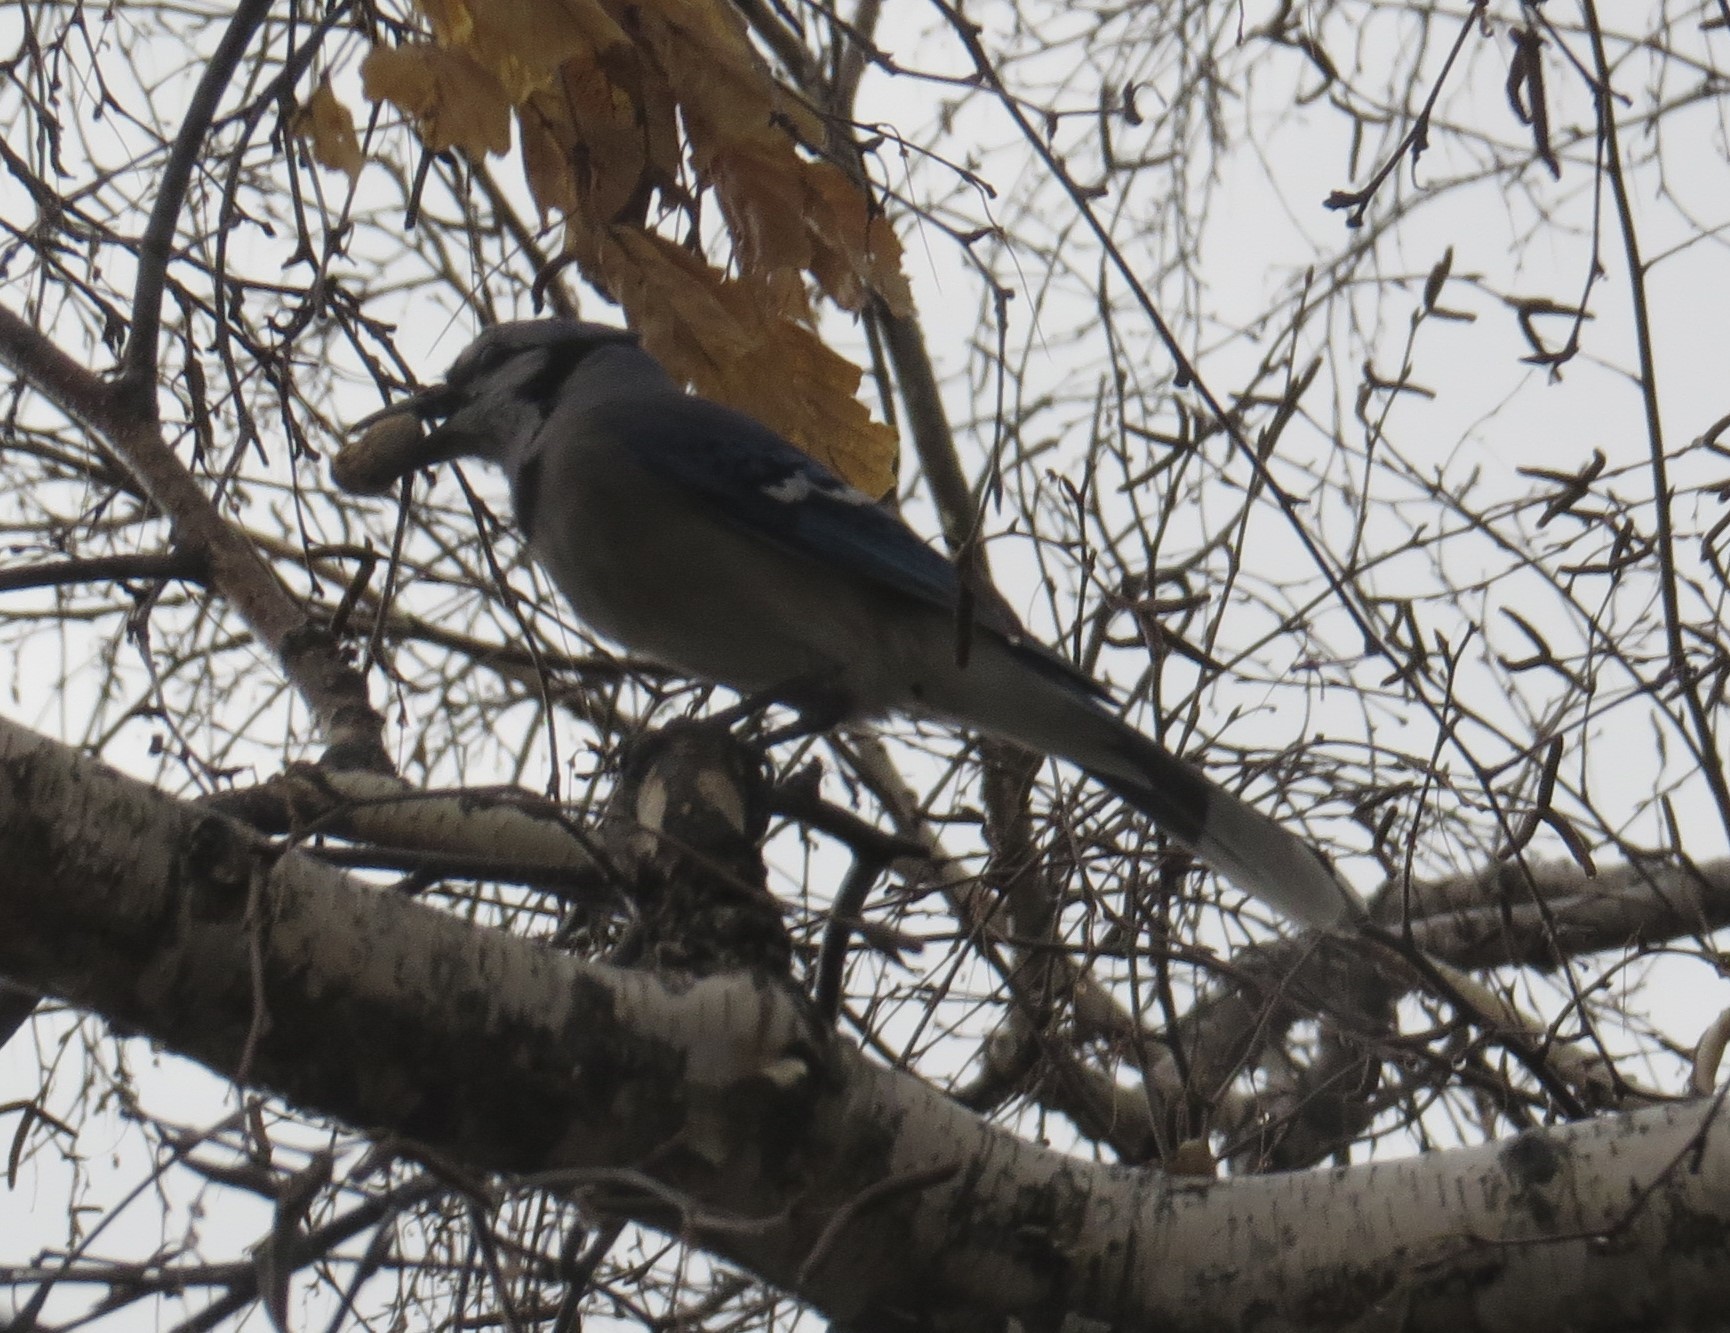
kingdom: Animalia
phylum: Chordata
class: Aves
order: Passeriformes
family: Corvidae
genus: Cyanocitta
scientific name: Cyanocitta cristata
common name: Blue jay
